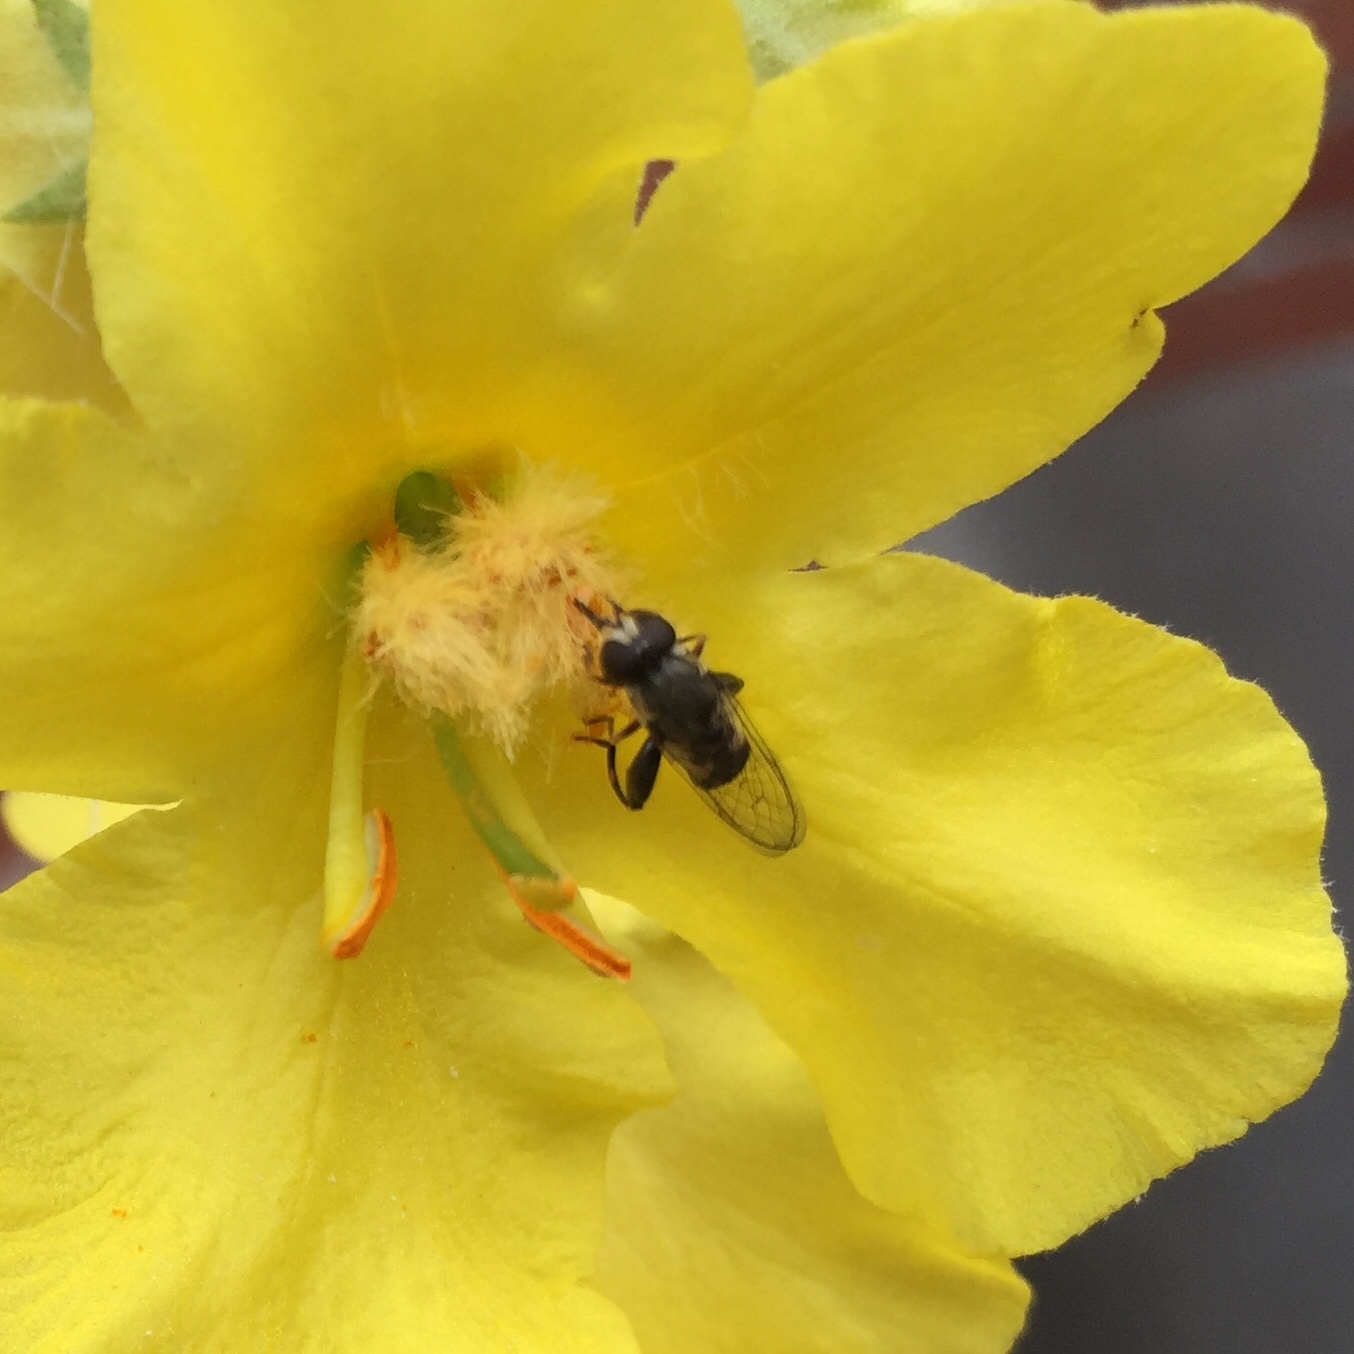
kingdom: Animalia
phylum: Arthropoda
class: Insecta
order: Diptera
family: Syrphidae
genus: Syritta
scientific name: Syritta pipiens
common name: Hover fly
